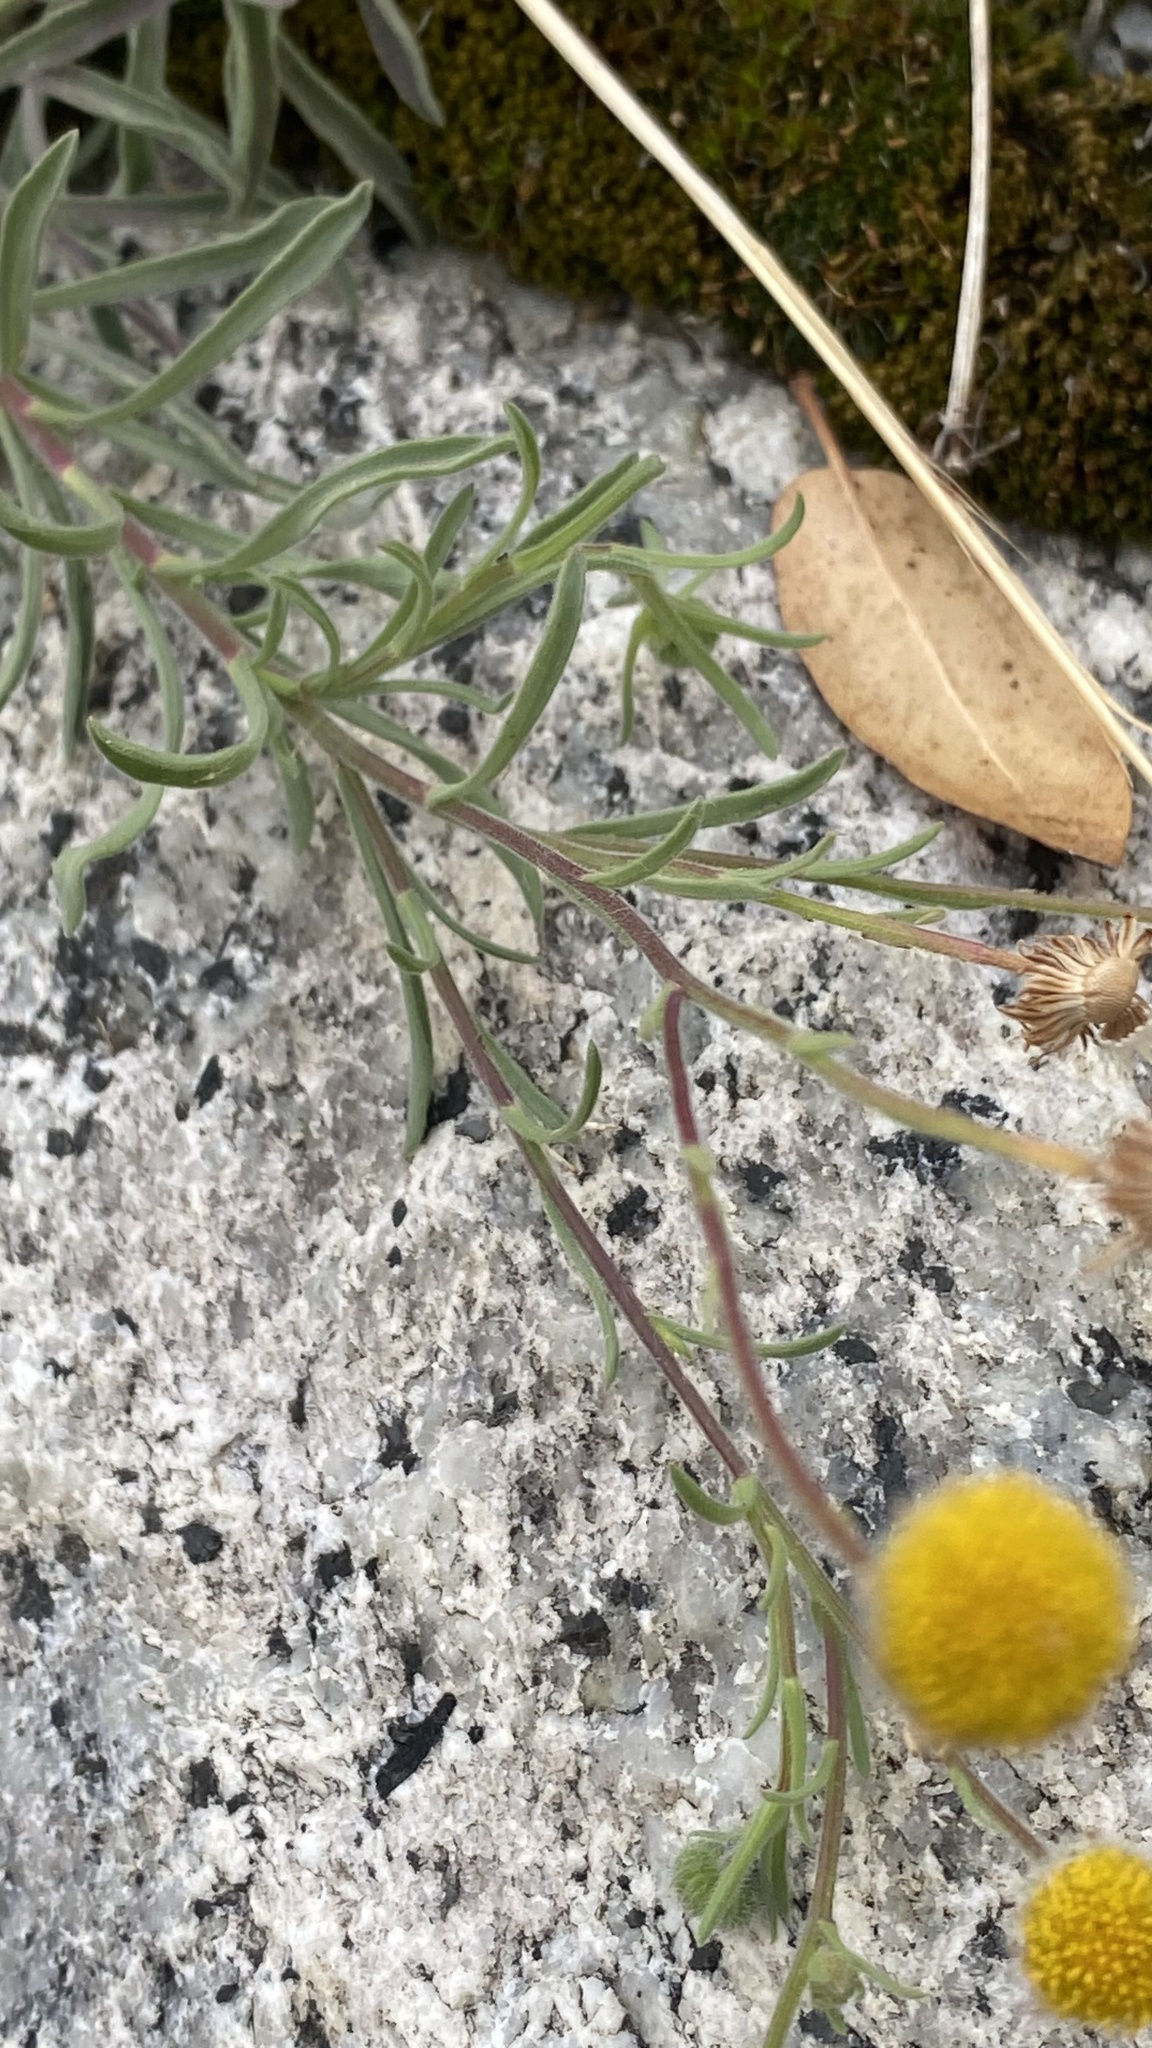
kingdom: Plantae
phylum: Tracheophyta
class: Magnoliopsida
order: Asterales
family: Asteraceae
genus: Erigeron
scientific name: Erigeron aphanactis
